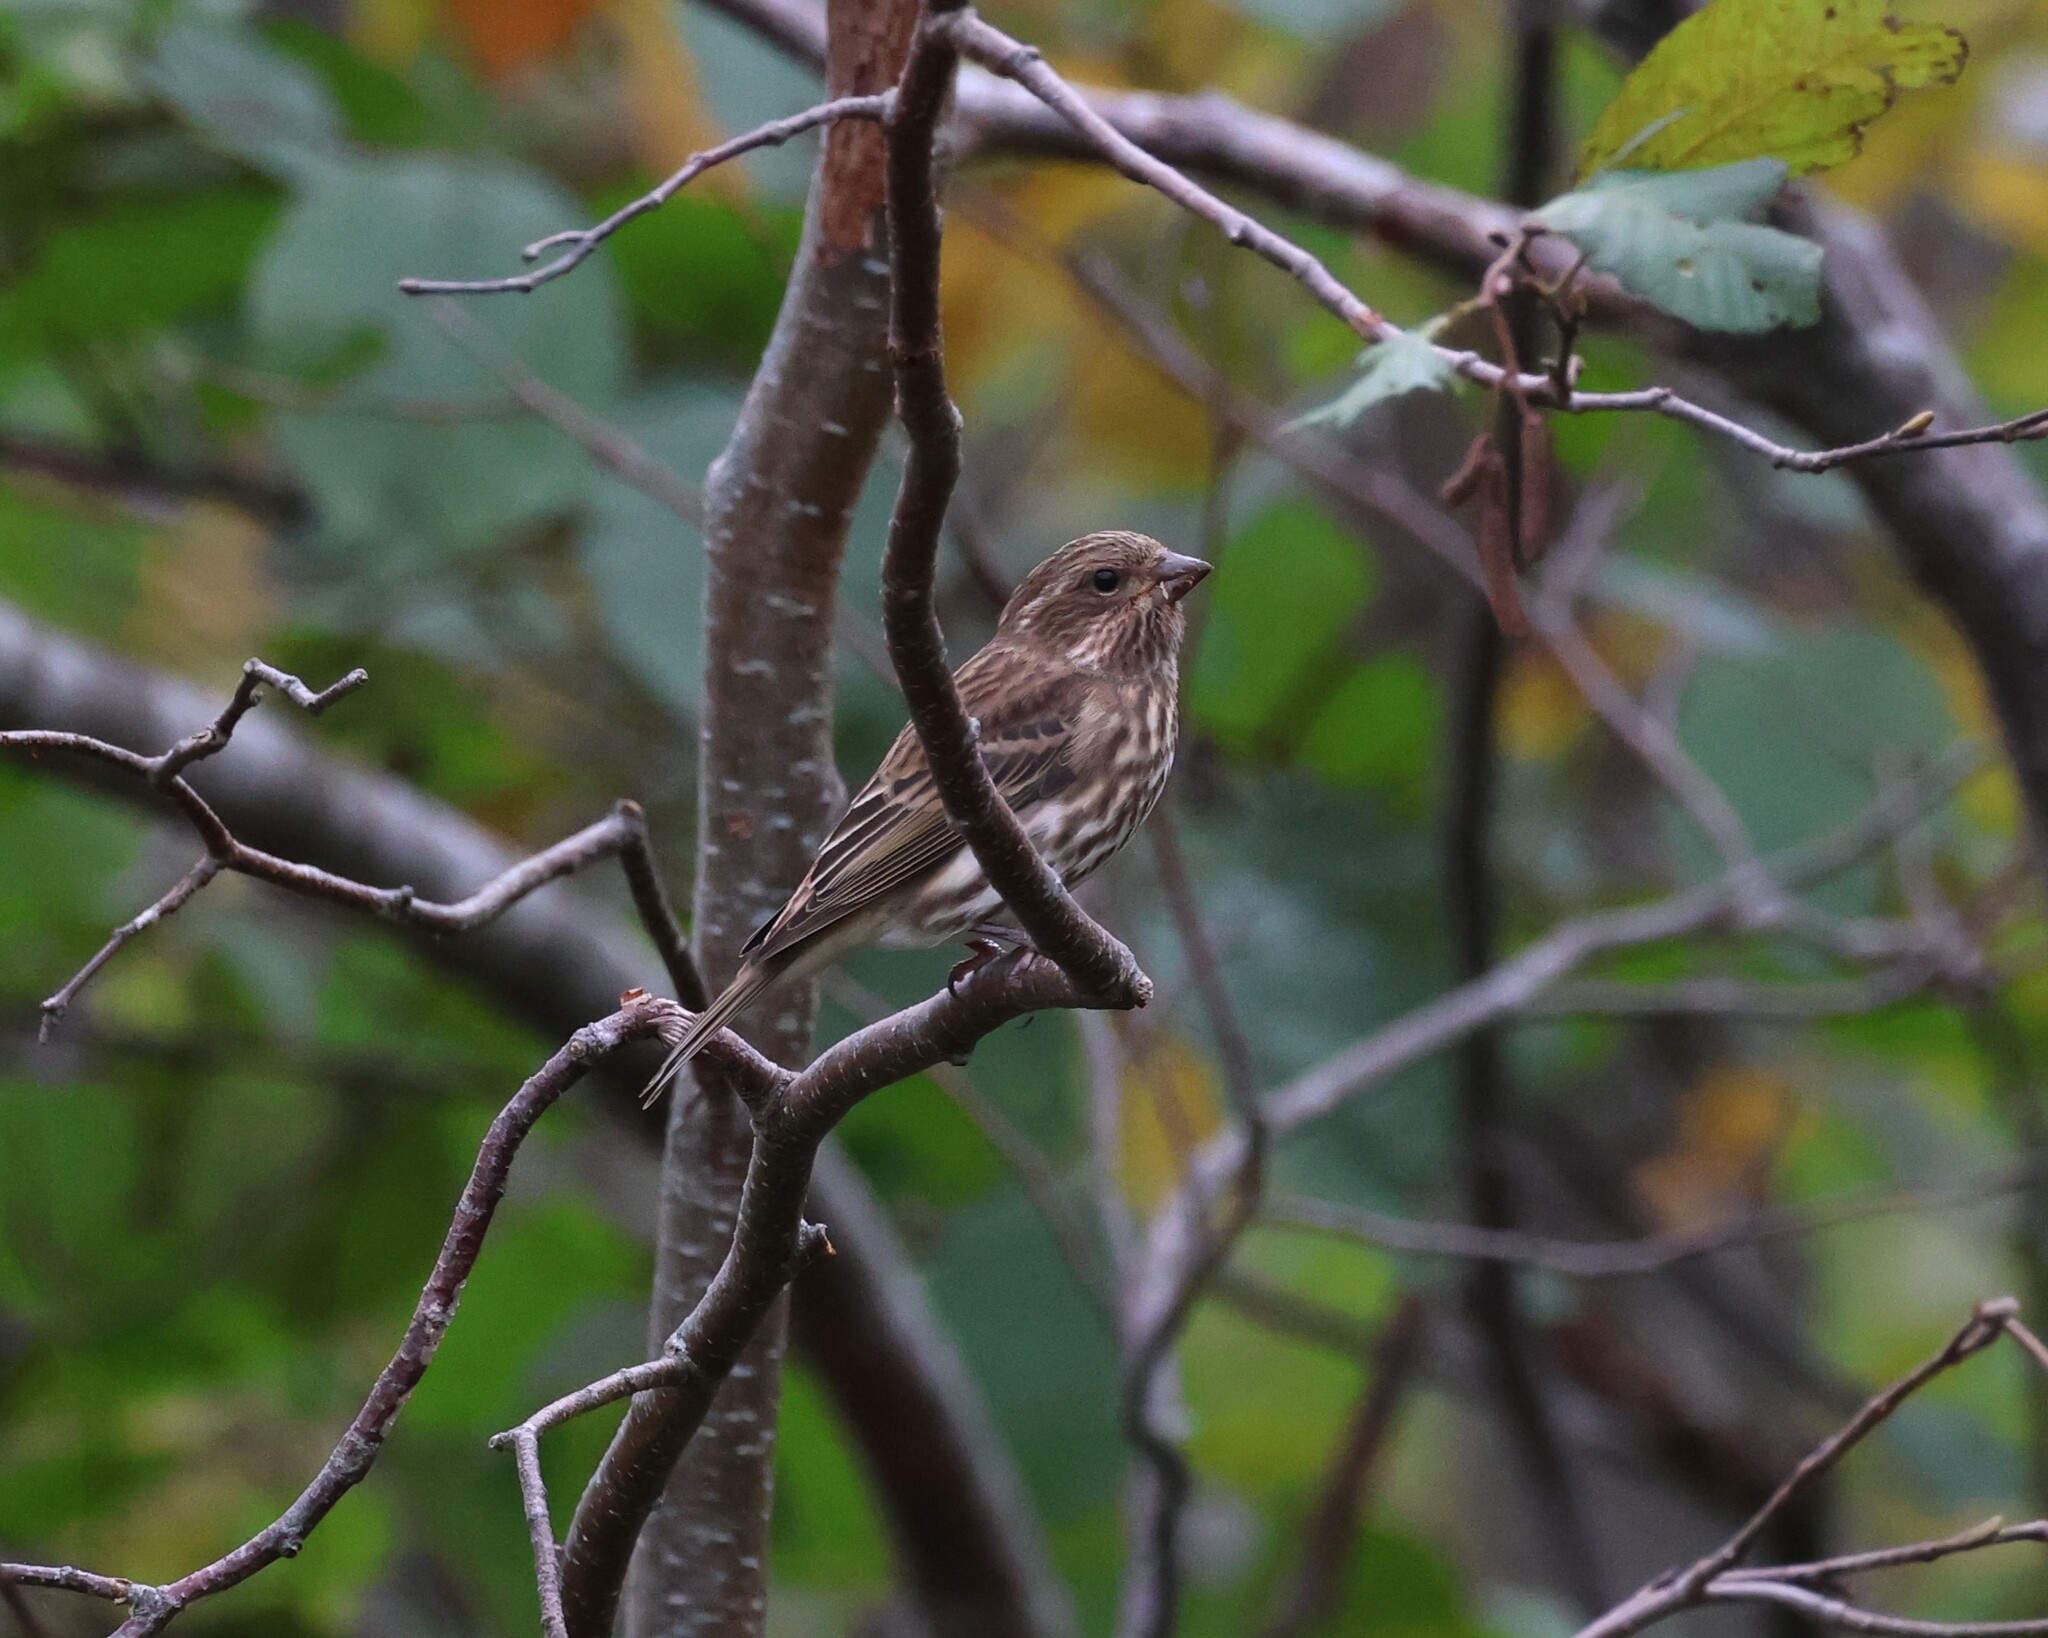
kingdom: Animalia
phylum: Chordata
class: Aves
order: Passeriformes
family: Fringillidae
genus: Haemorhous
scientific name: Haemorhous purpureus
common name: Purple finch
